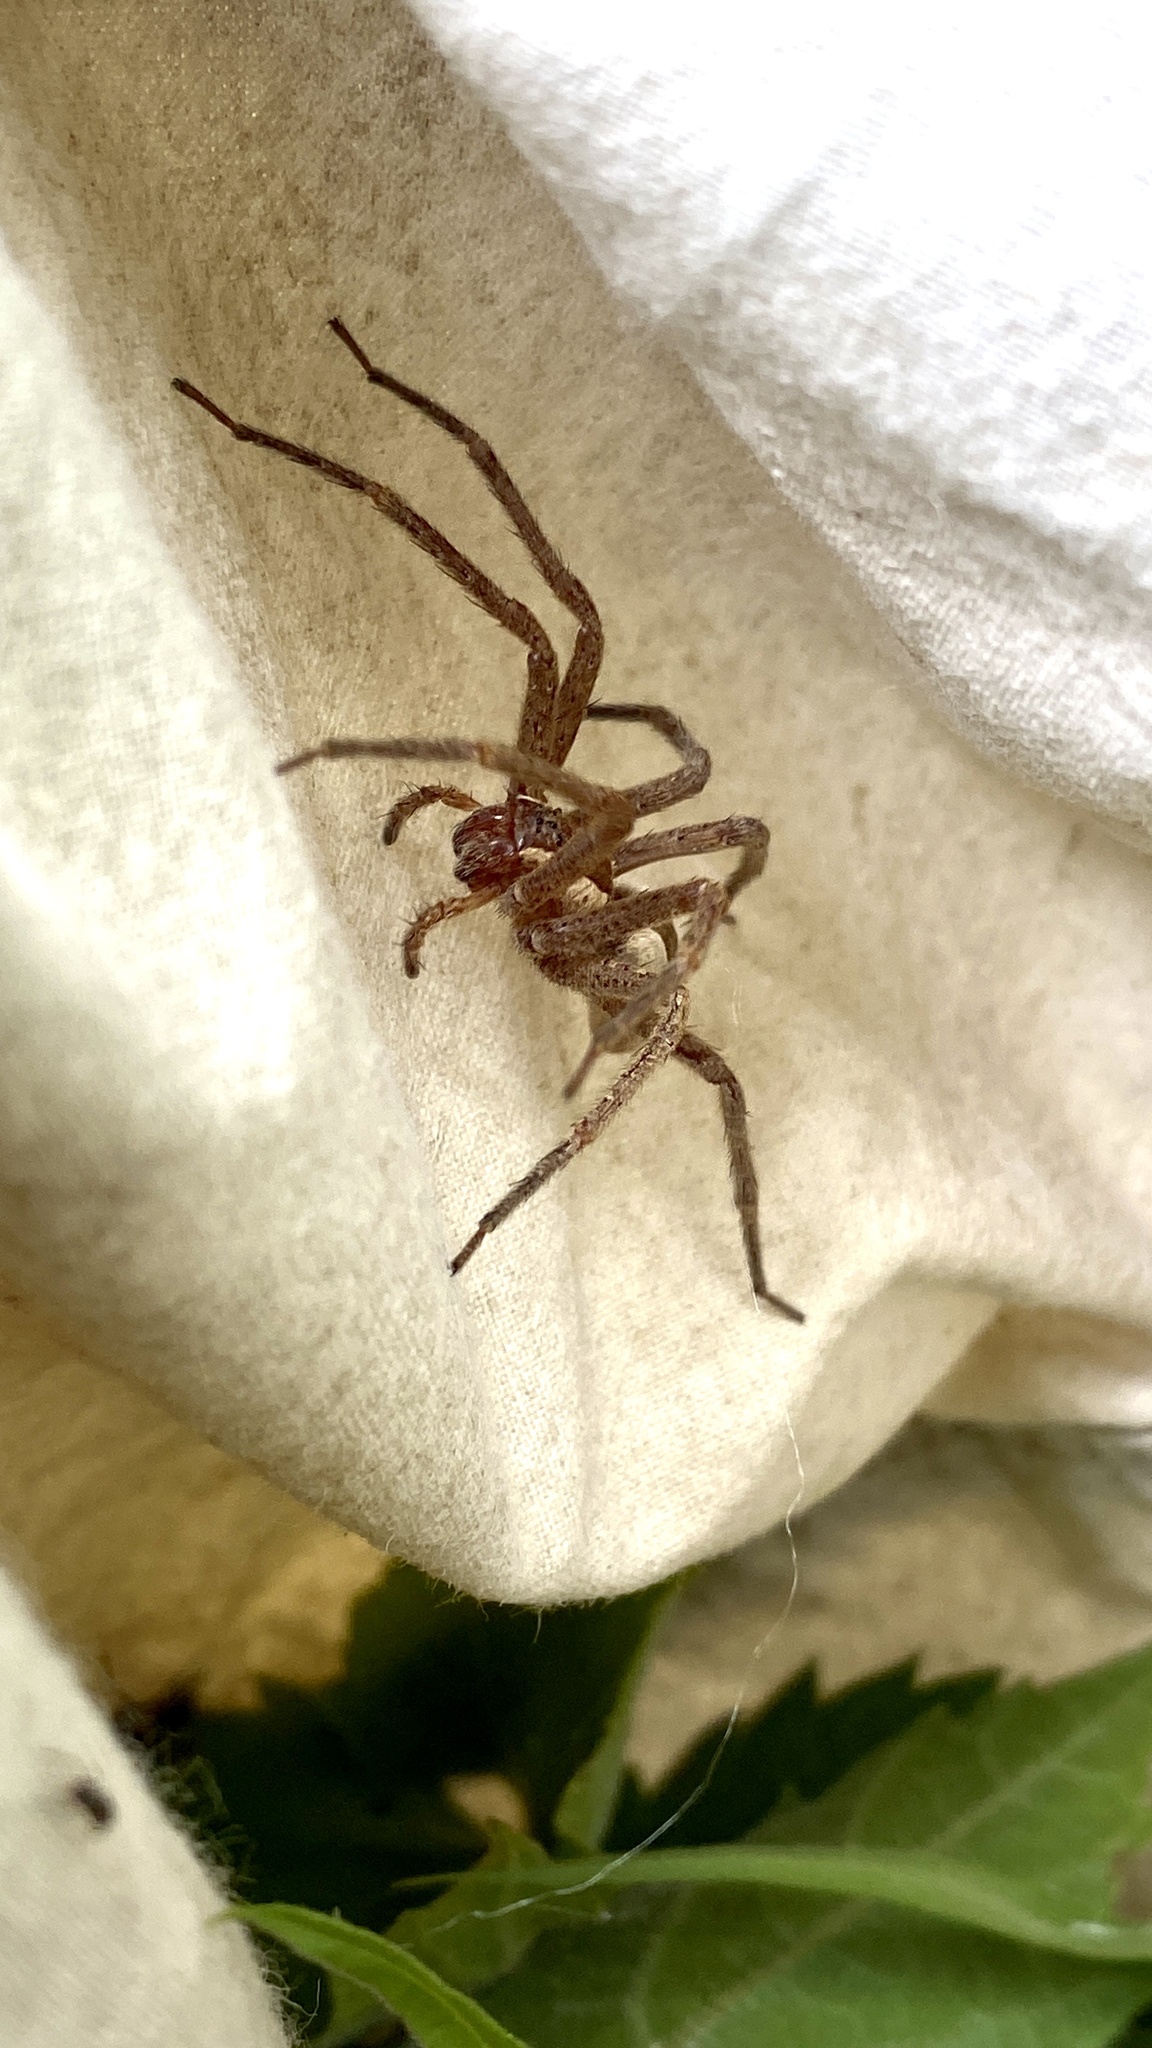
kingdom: Animalia
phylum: Arthropoda
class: Arachnida
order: Araneae
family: Pisauridae
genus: Pisaurina
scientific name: Pisaurina mira
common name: American nursery web spider
